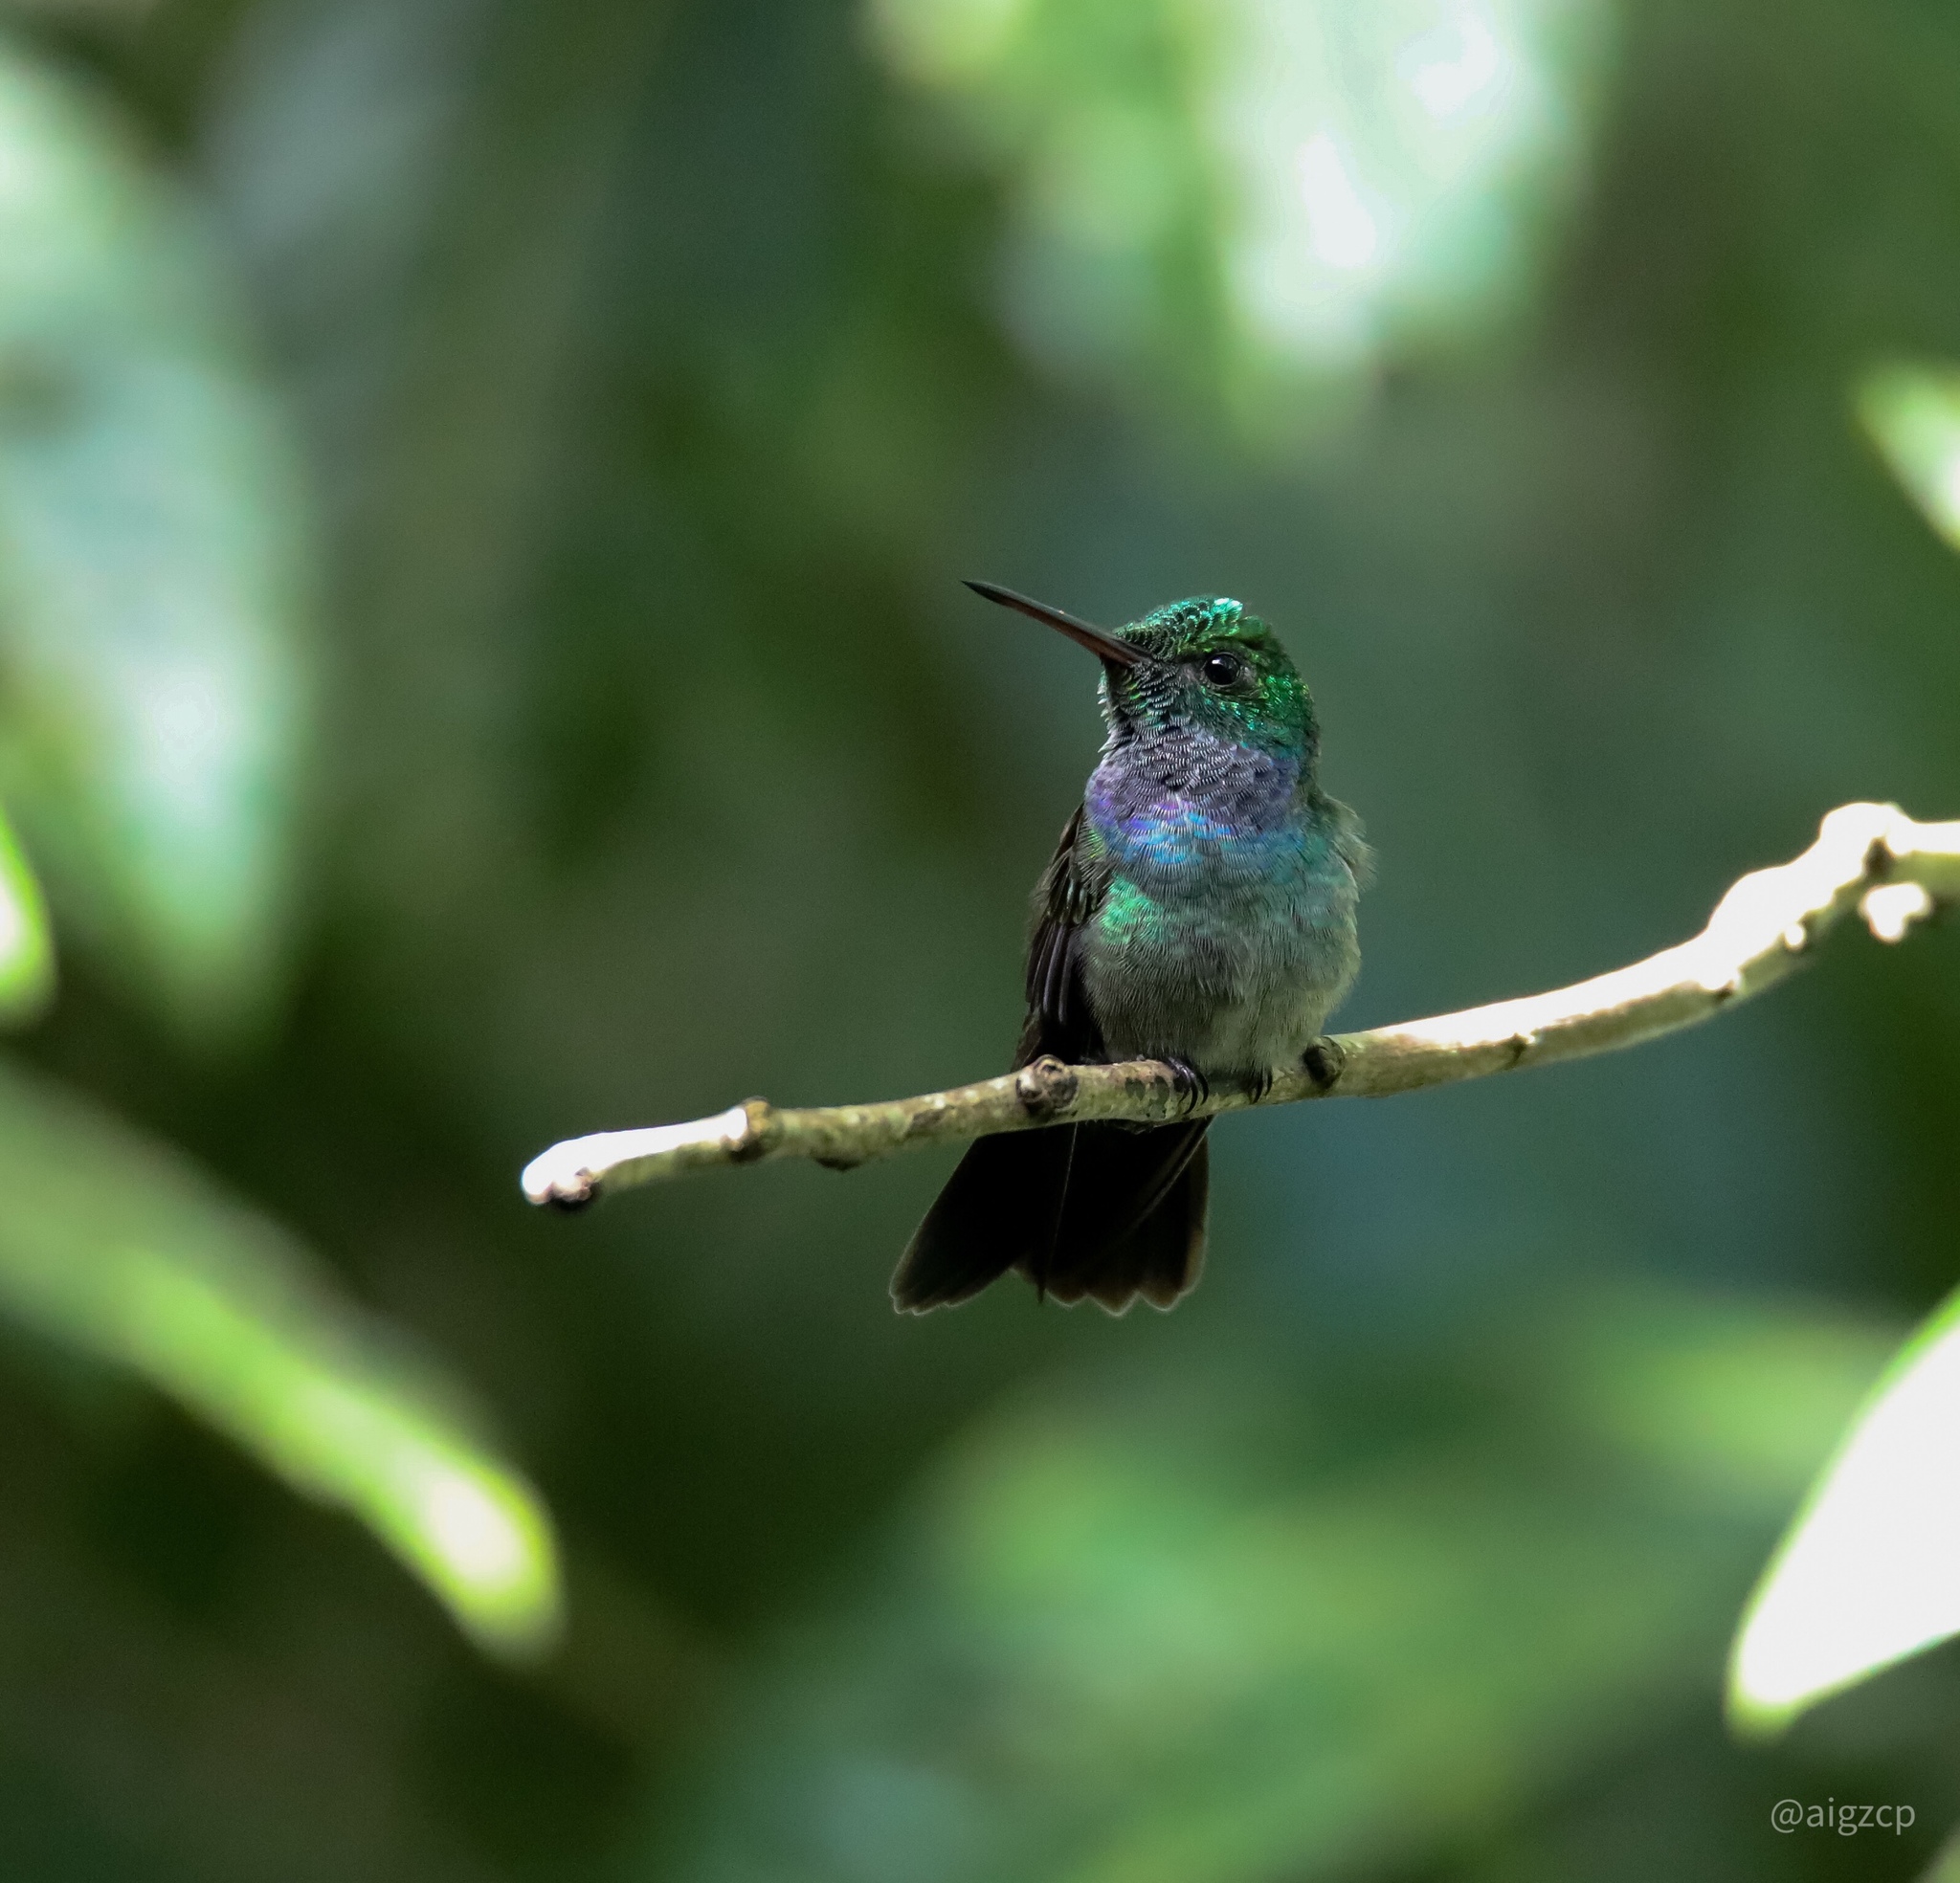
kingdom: Animalia
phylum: Chordata
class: Aves
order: Apodiformes
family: Trochilidae
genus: Polyerata
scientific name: Polyerata amabilis
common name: Blue-chested hummingbird
